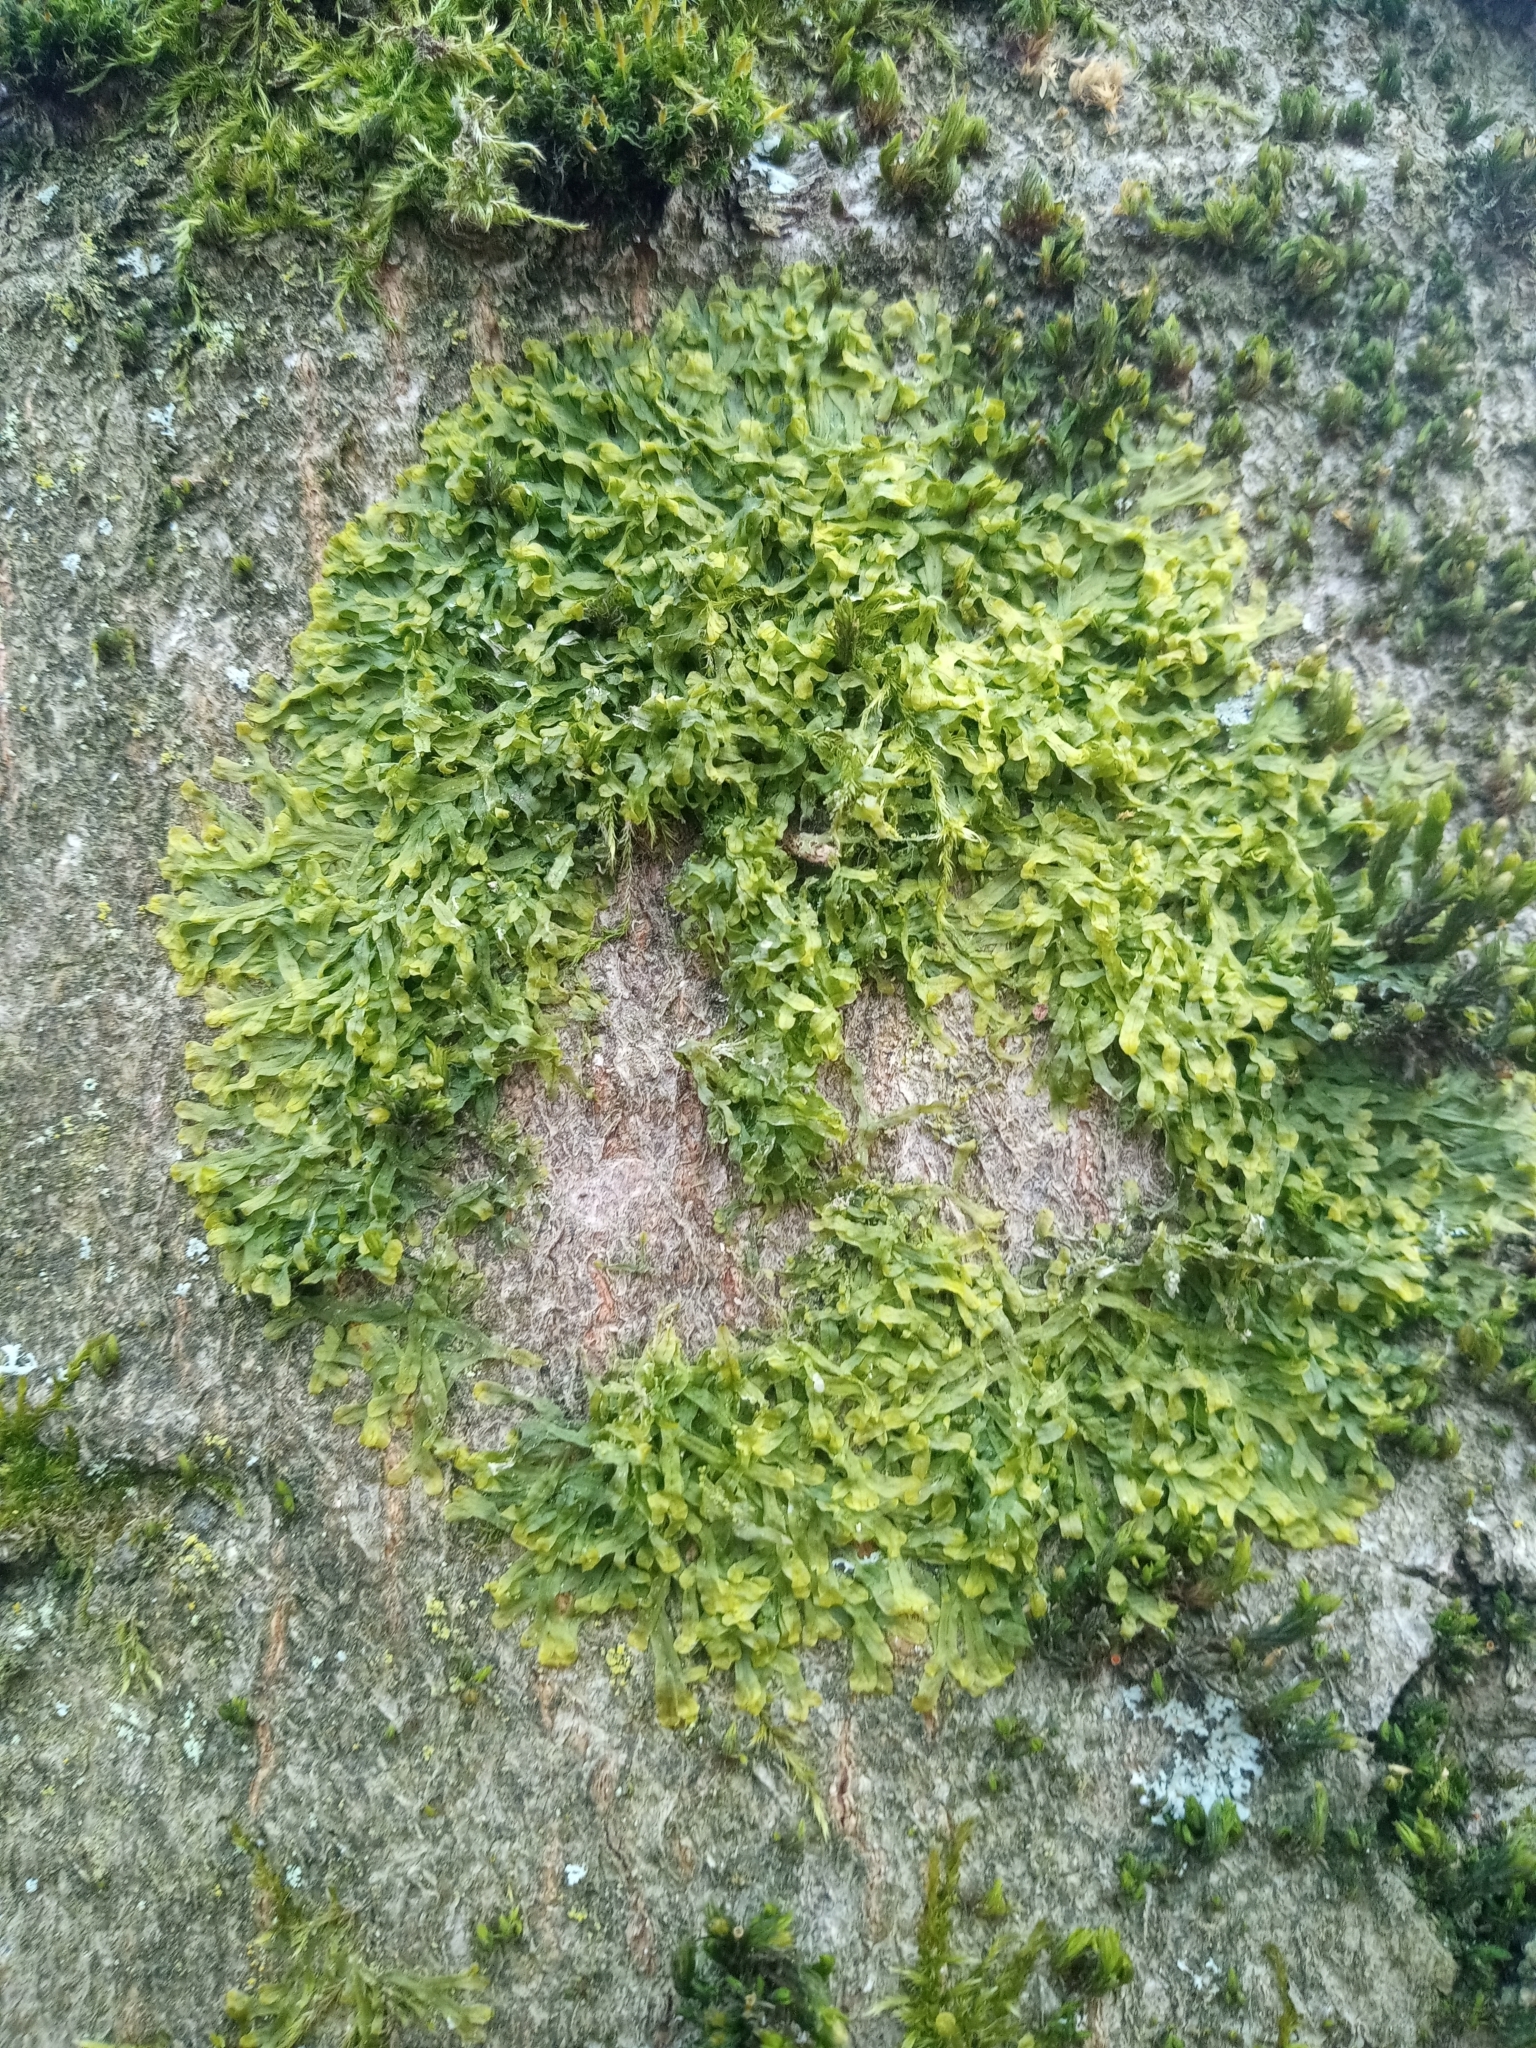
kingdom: Plantae
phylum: Marchantiophyta
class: Jungermanniopsida
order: Metzgeriales
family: Metzgeriaceae
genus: Metzgeria
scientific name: Metzgeria furcata
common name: Forked veilwort
